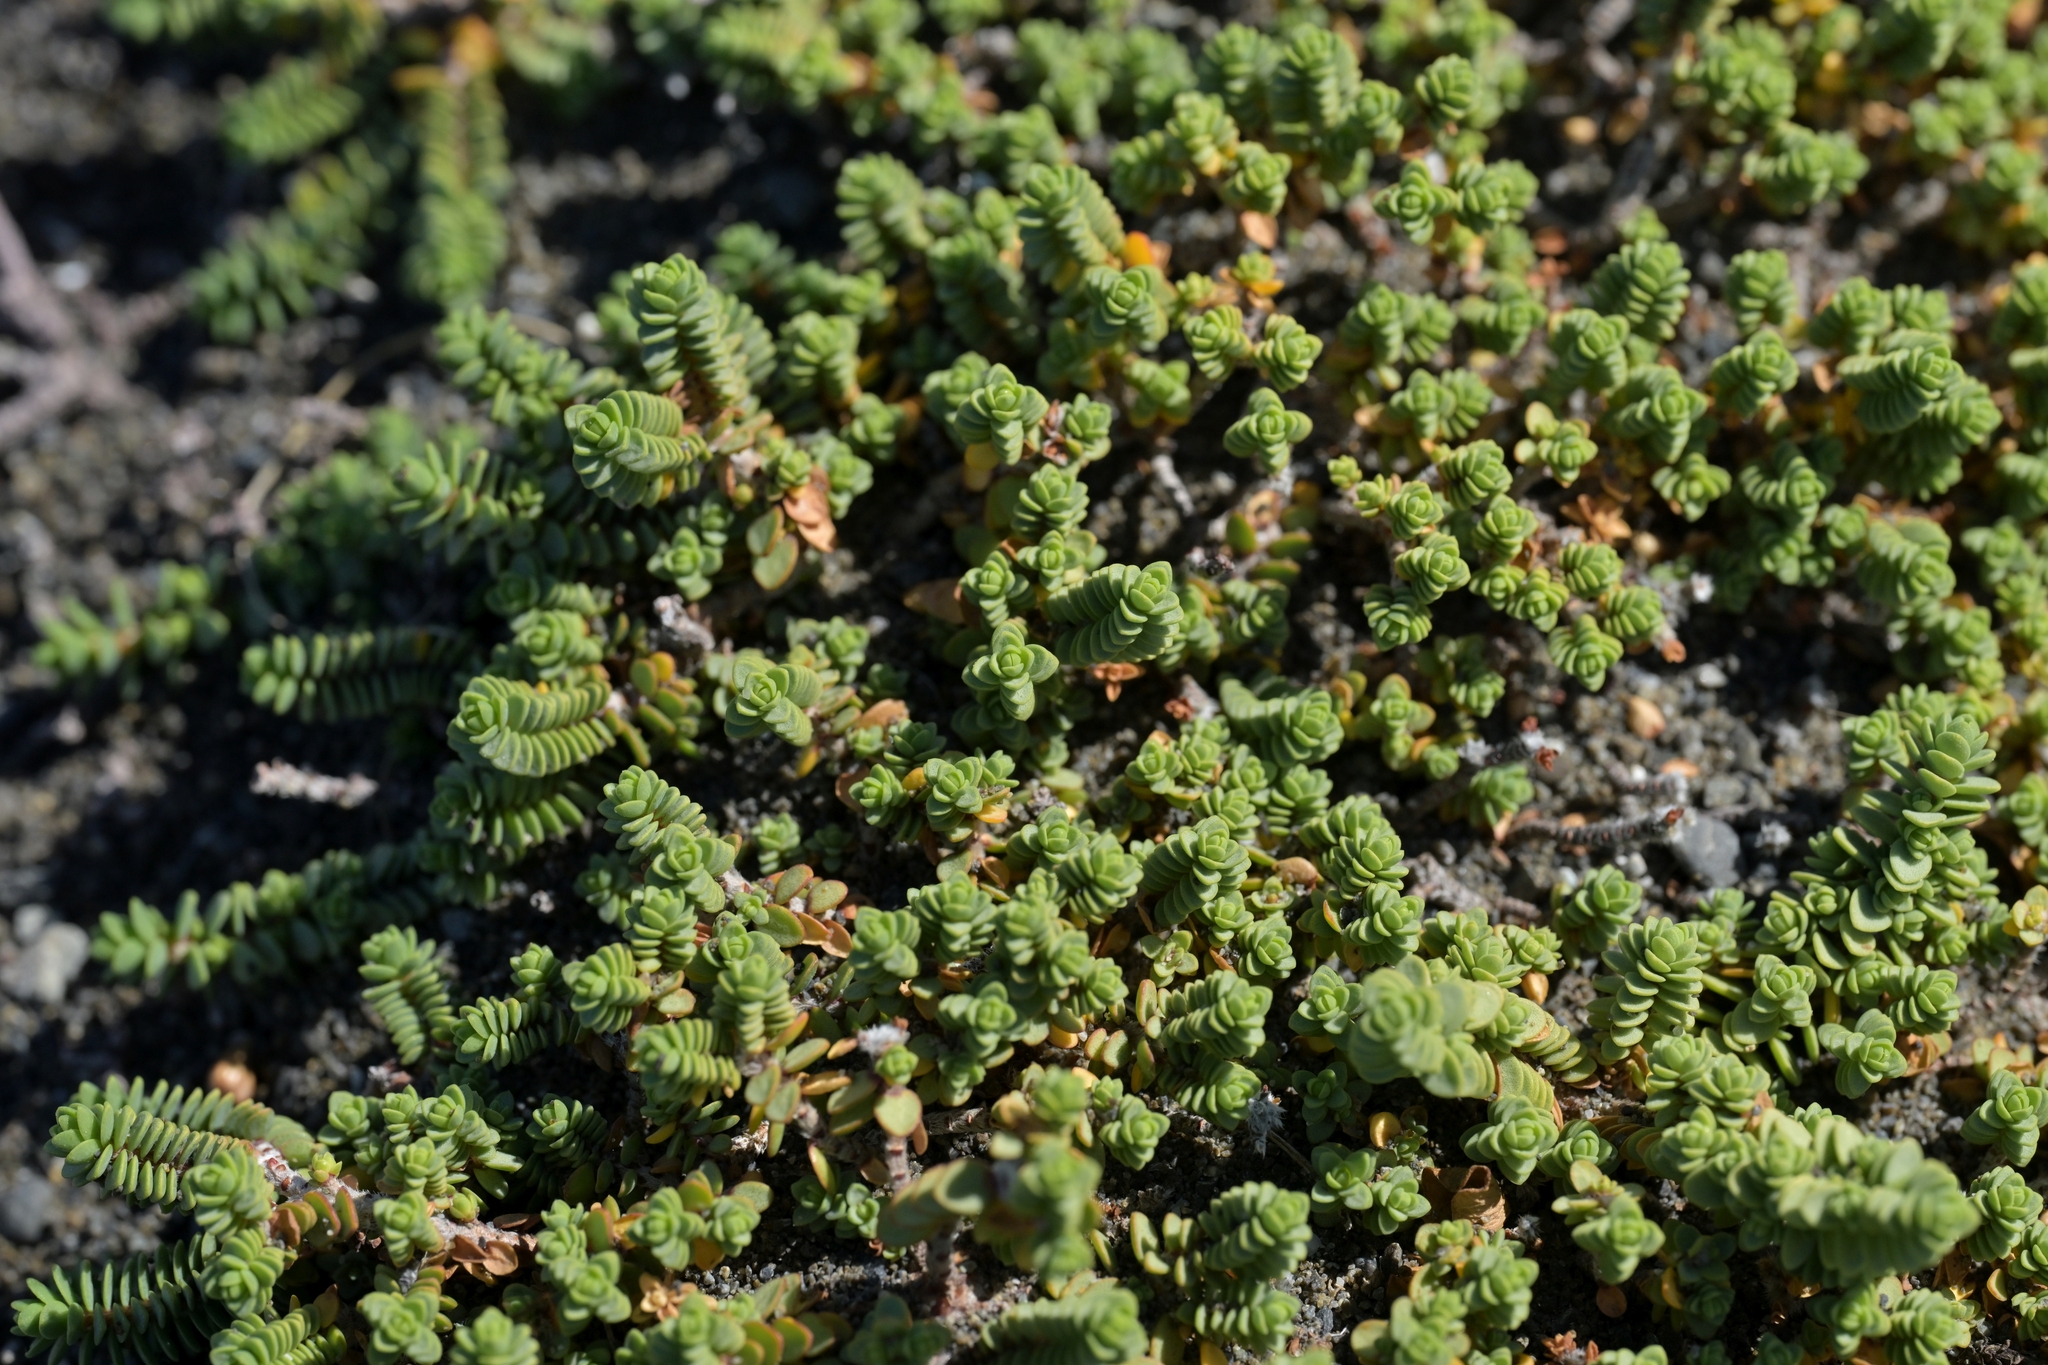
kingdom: Plantae
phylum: Tracheophyta
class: Magnoliopsida
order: Malvales
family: Thymelaeaceae
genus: Pimelea
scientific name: Pimelea carnosa
